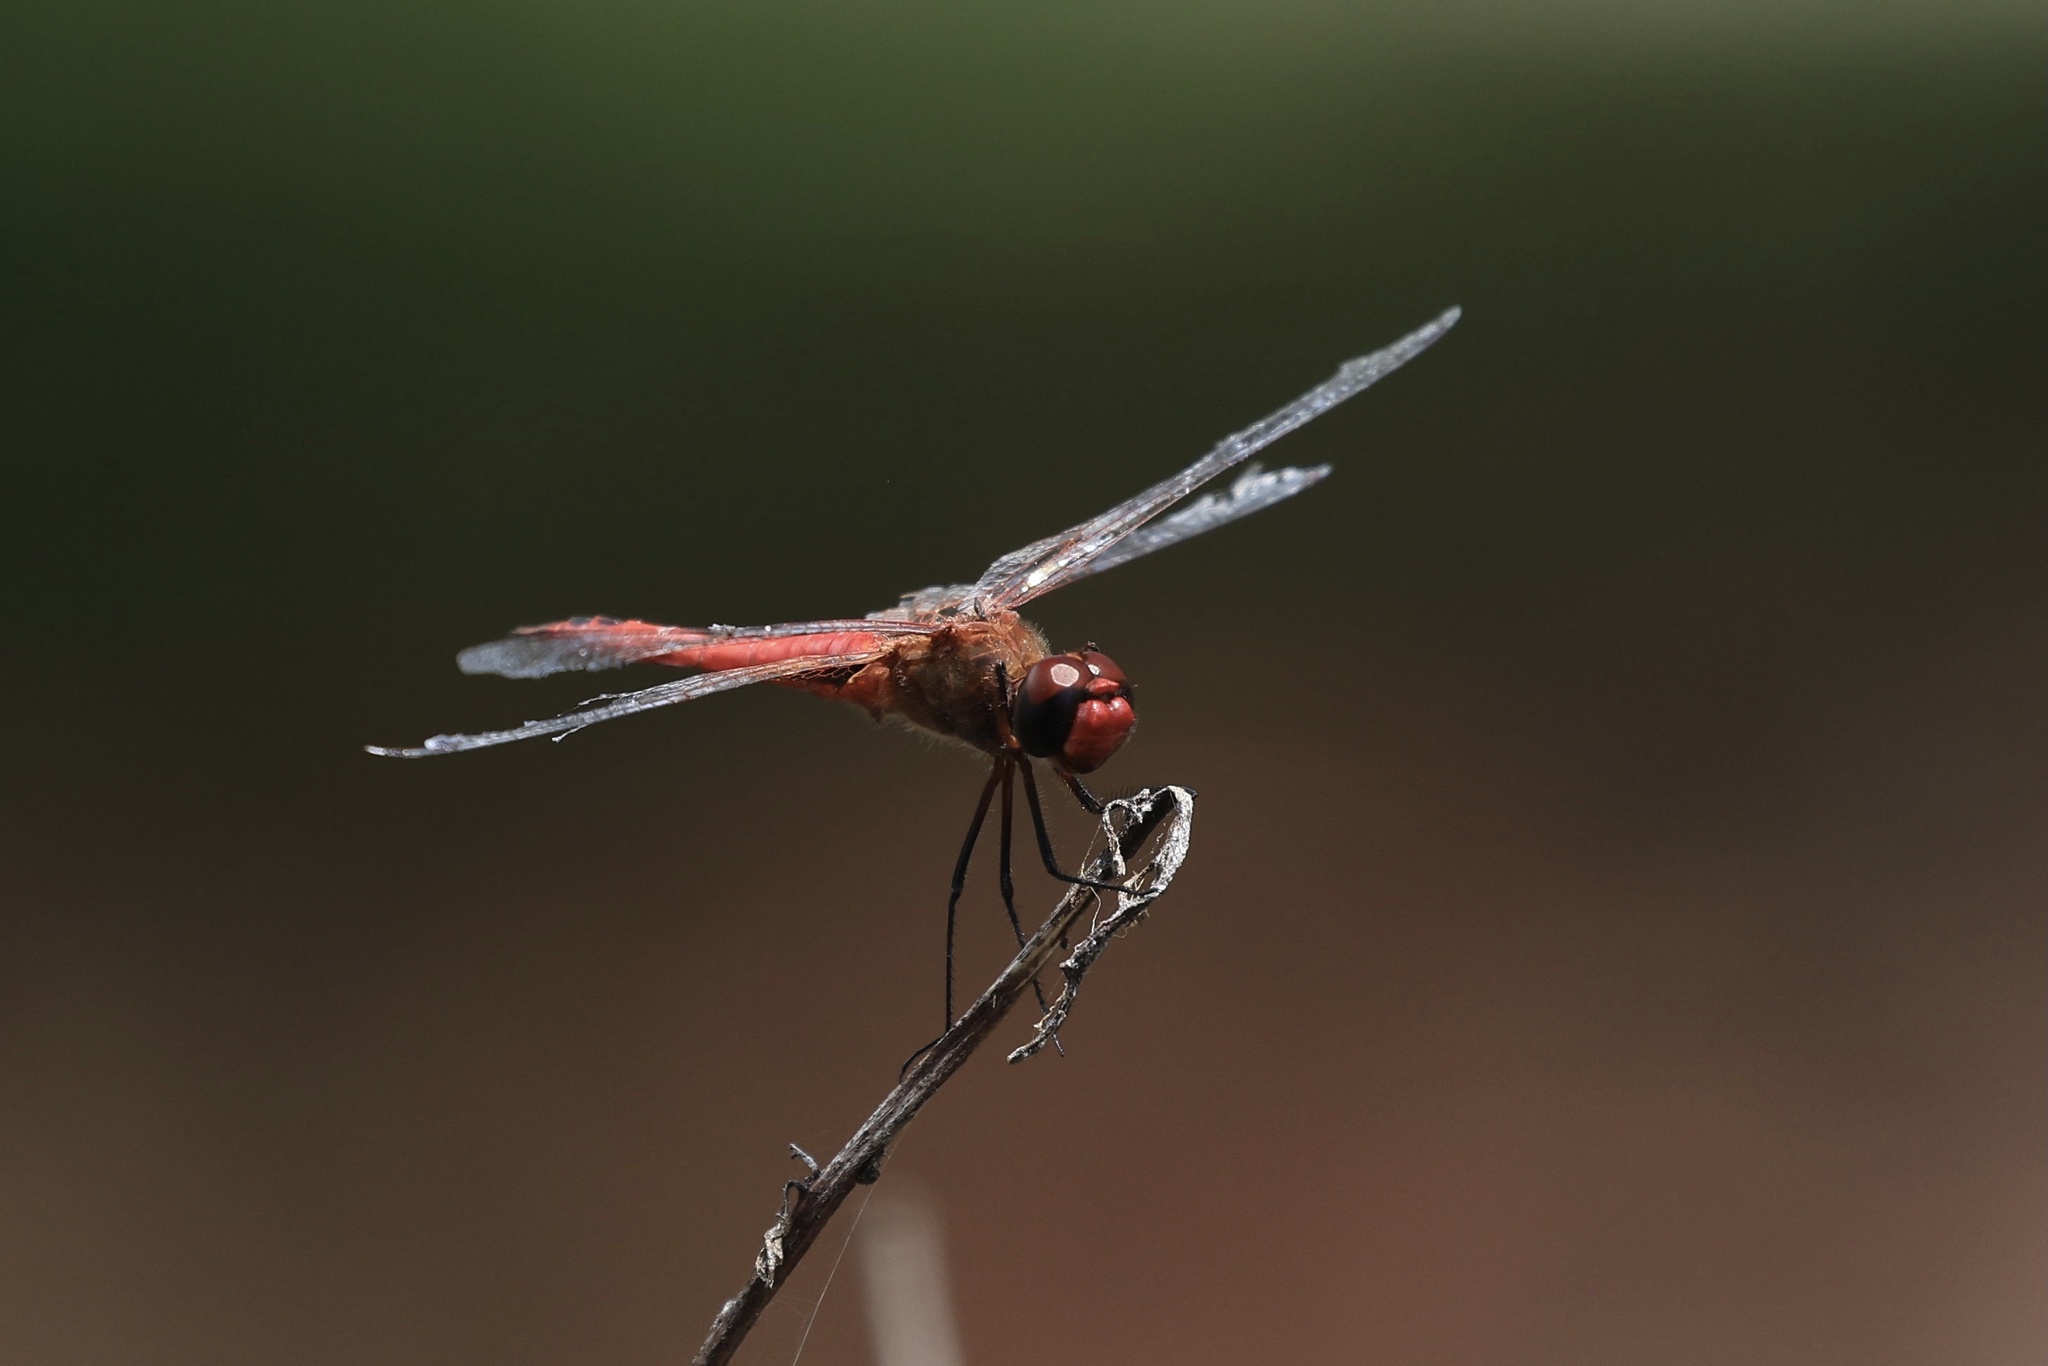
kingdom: Animalia
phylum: Arthropoda
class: Insecta
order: Odonata
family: Libellulidae
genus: Tramea
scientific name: Tramea abdominalis
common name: Vermilion saddlebags
